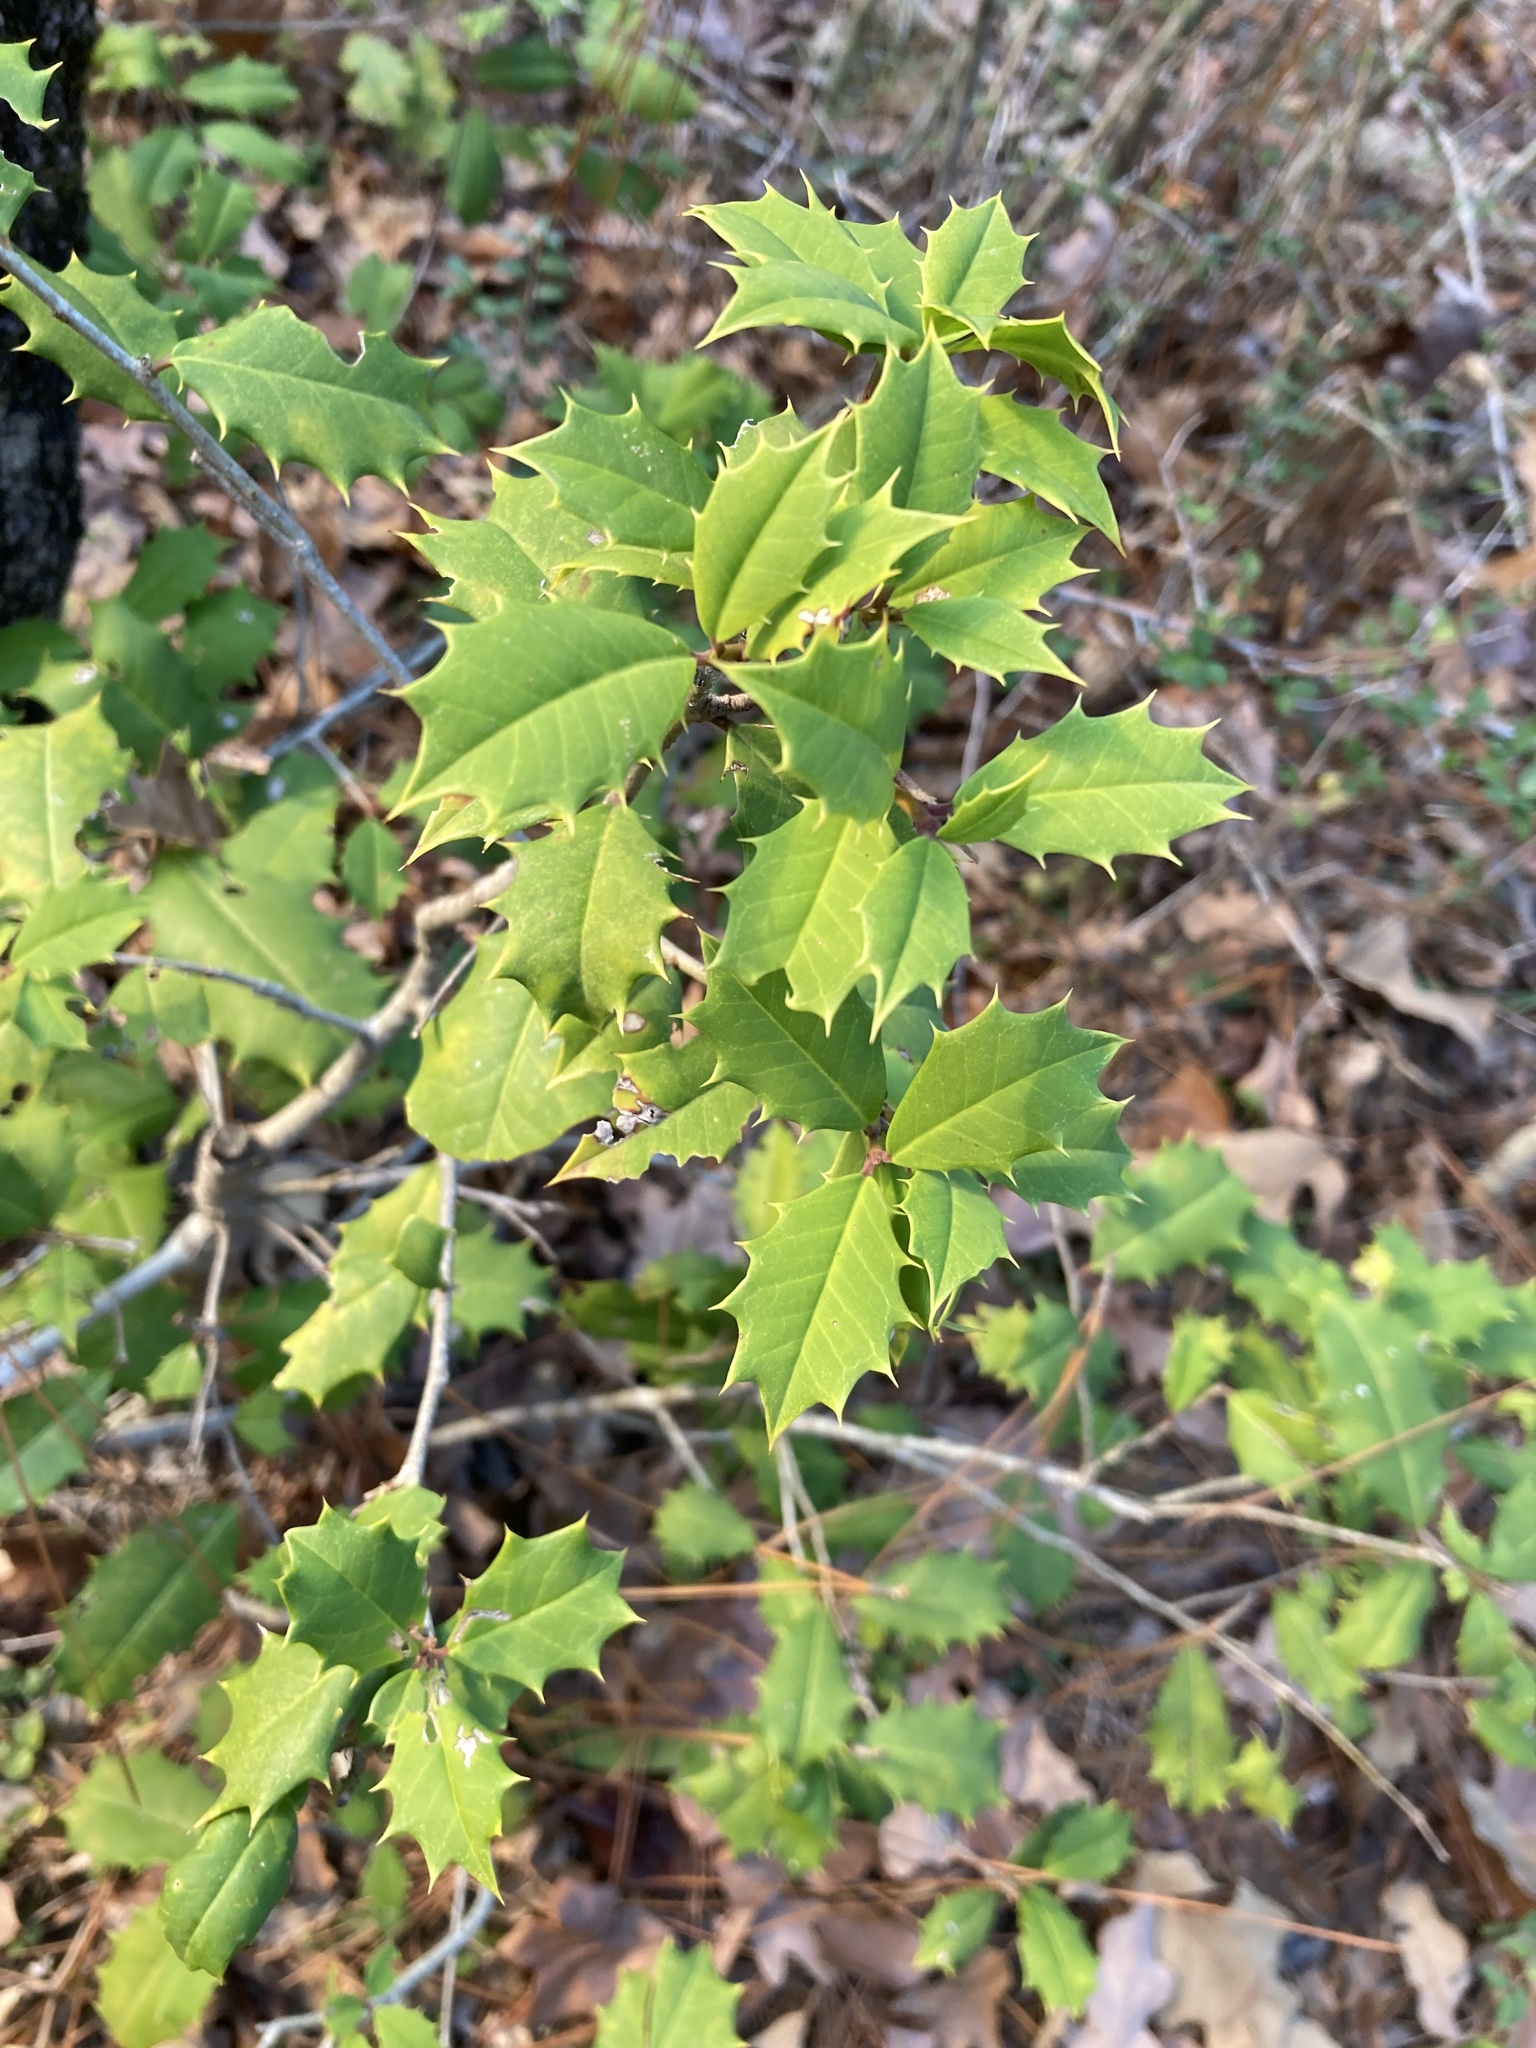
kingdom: Plantae
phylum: Tracheophyta
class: Magnoliopsida
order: Aquifoliales
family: Aquifoliaceae
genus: Ilex
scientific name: Ilex opaca
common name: American holly
